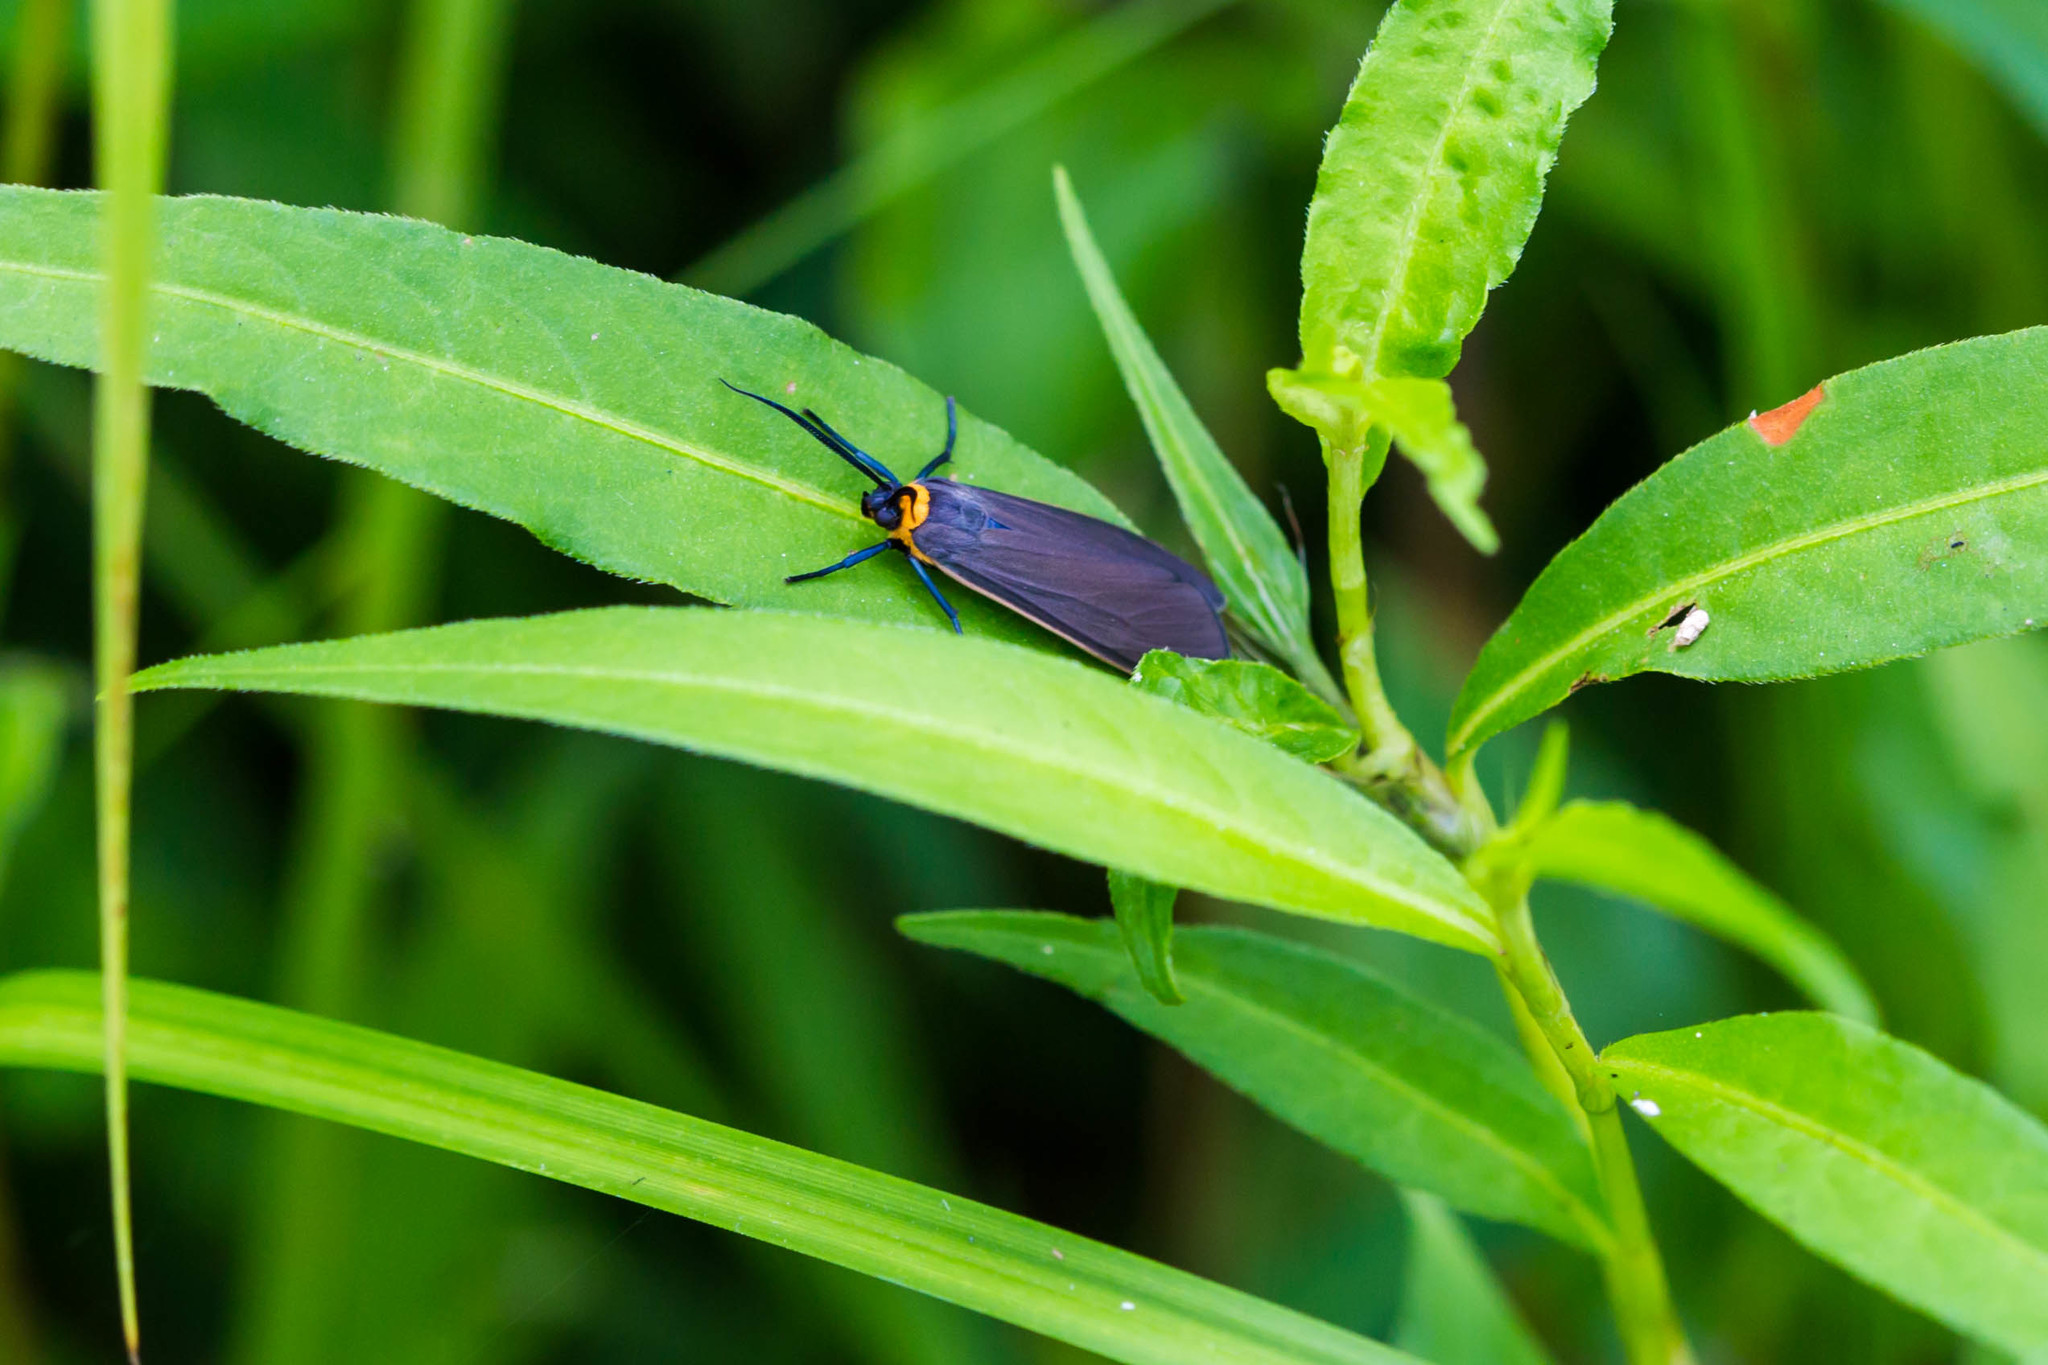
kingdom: Animalia
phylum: Arthropoda
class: Insecta
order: Lepidoptera
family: Erebidae
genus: Cisseps
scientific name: Cisseps fulvicollis
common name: Yellow-collared scape moth
